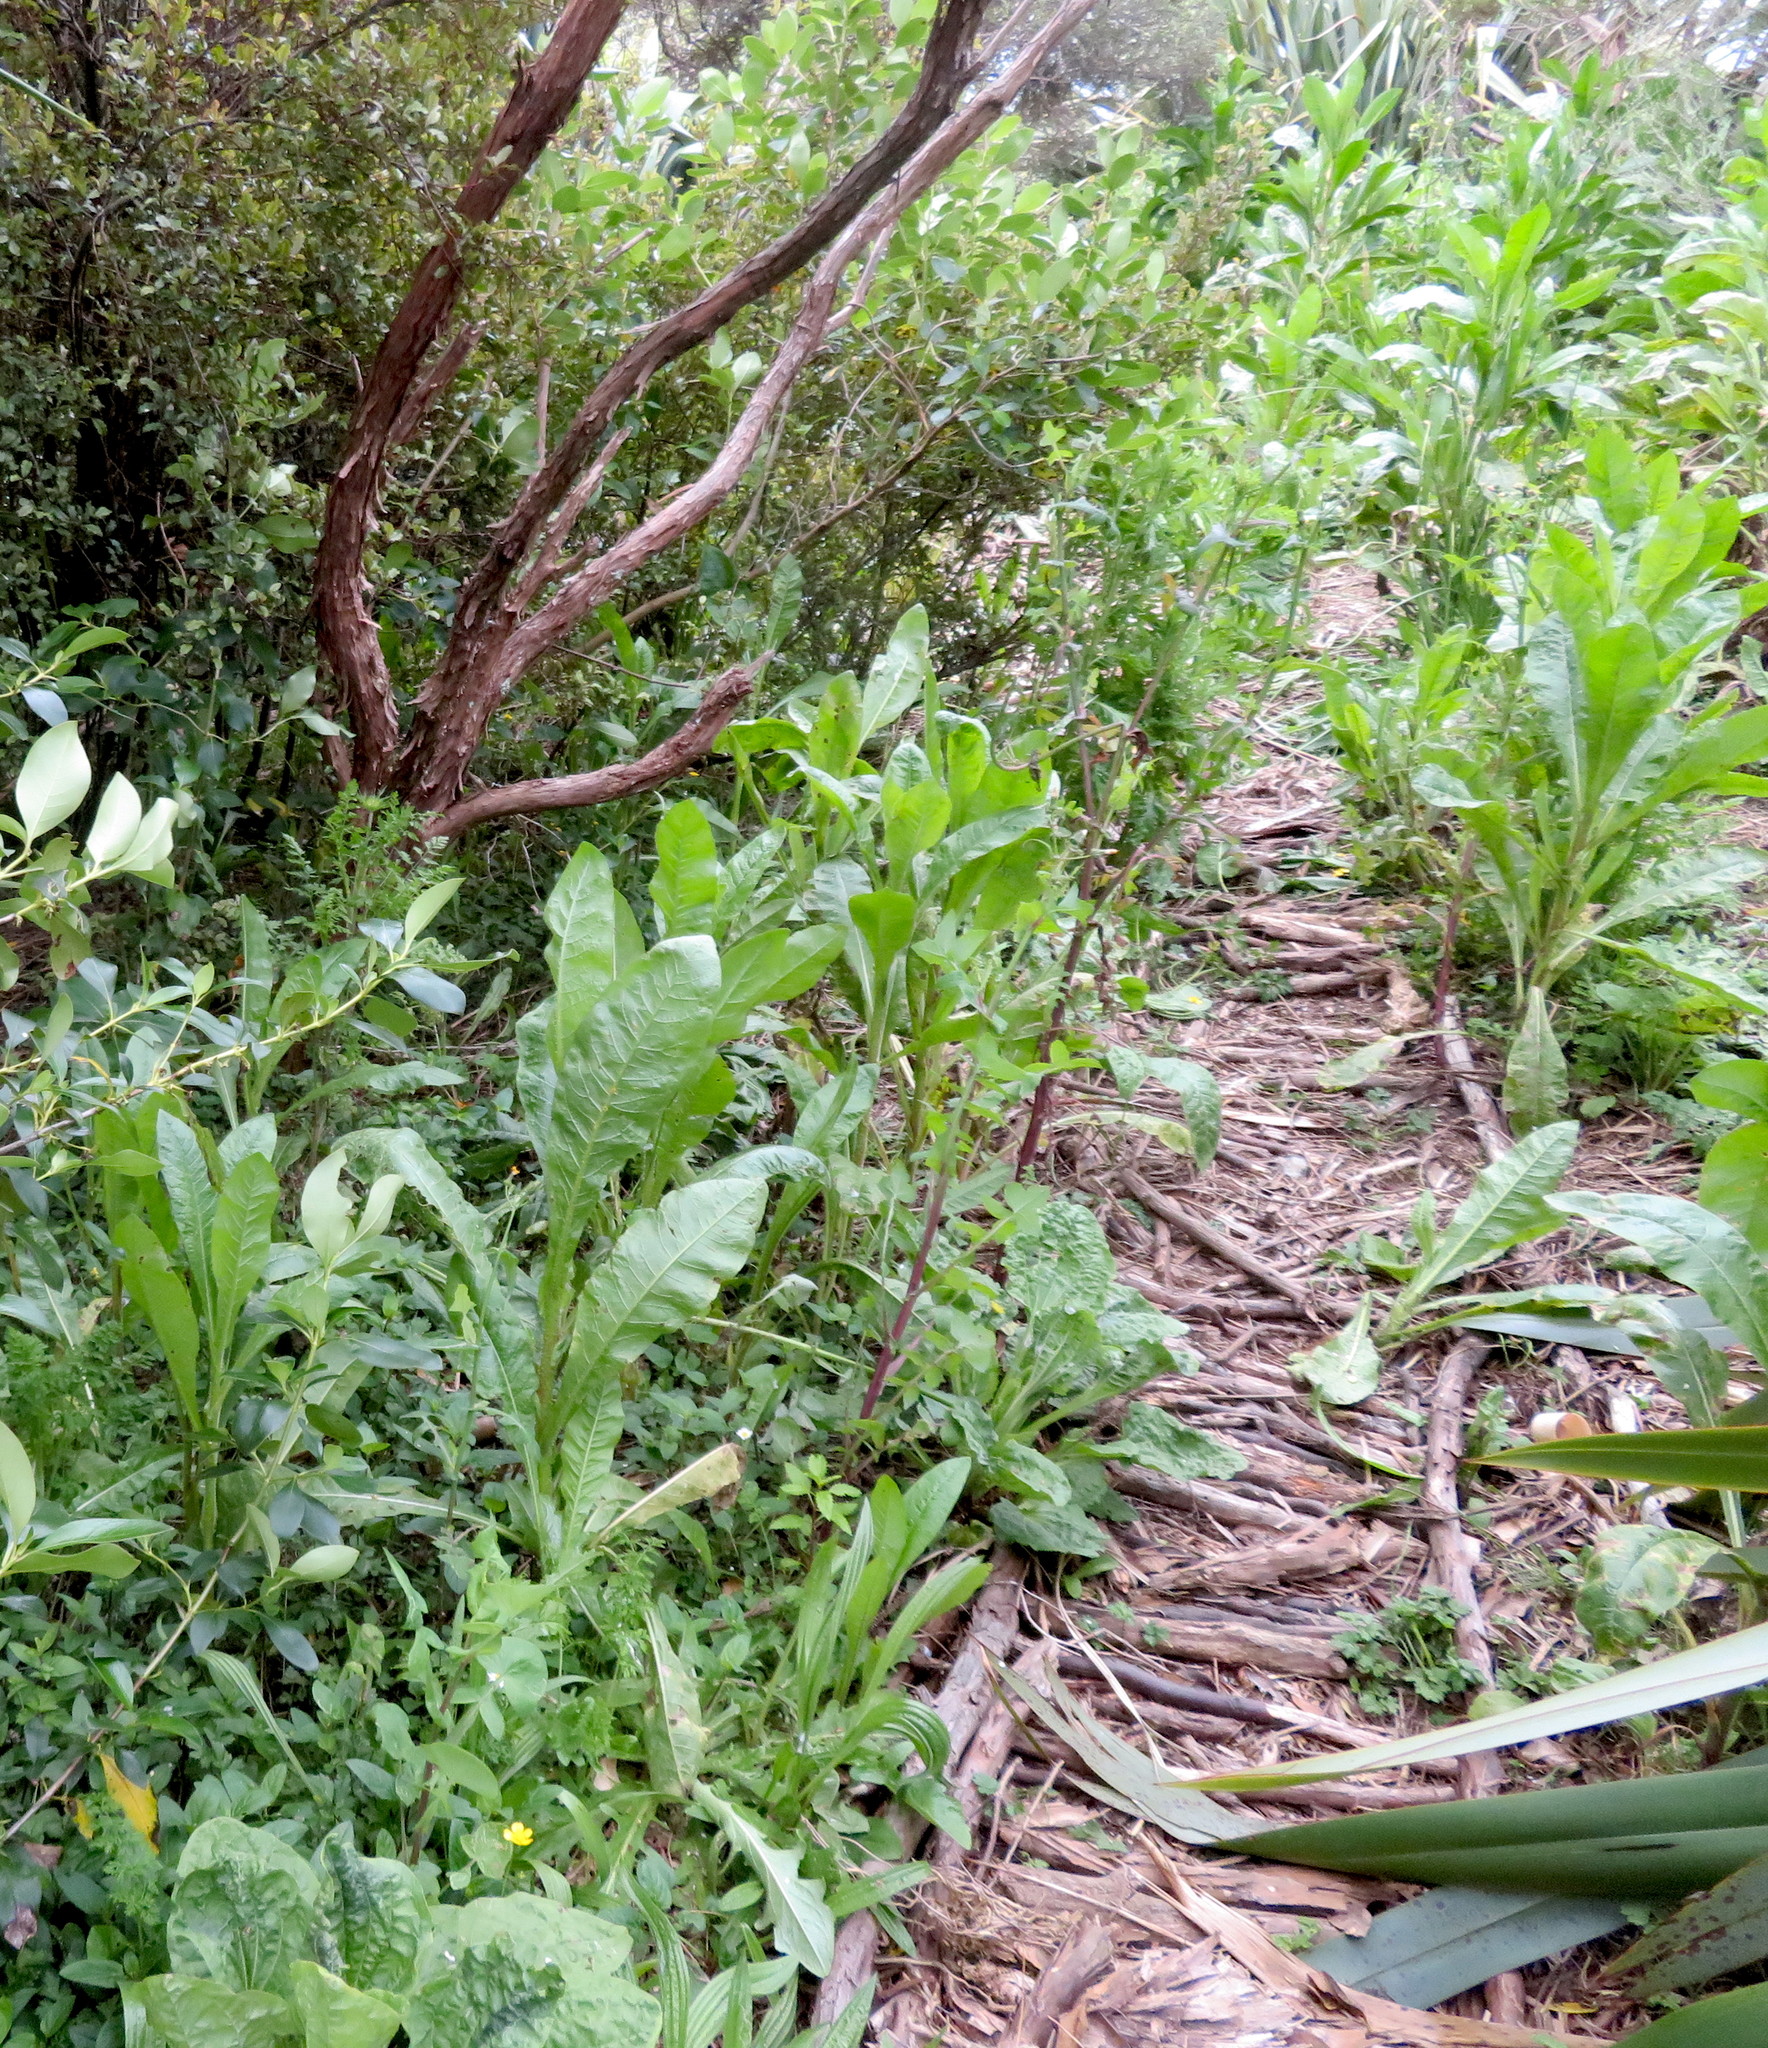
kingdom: Plantae
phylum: Tracheophyta
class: Magnoliopsida
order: Saxifragales
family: Haloragaceae
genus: Haloragis
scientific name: Haloragis erecta
